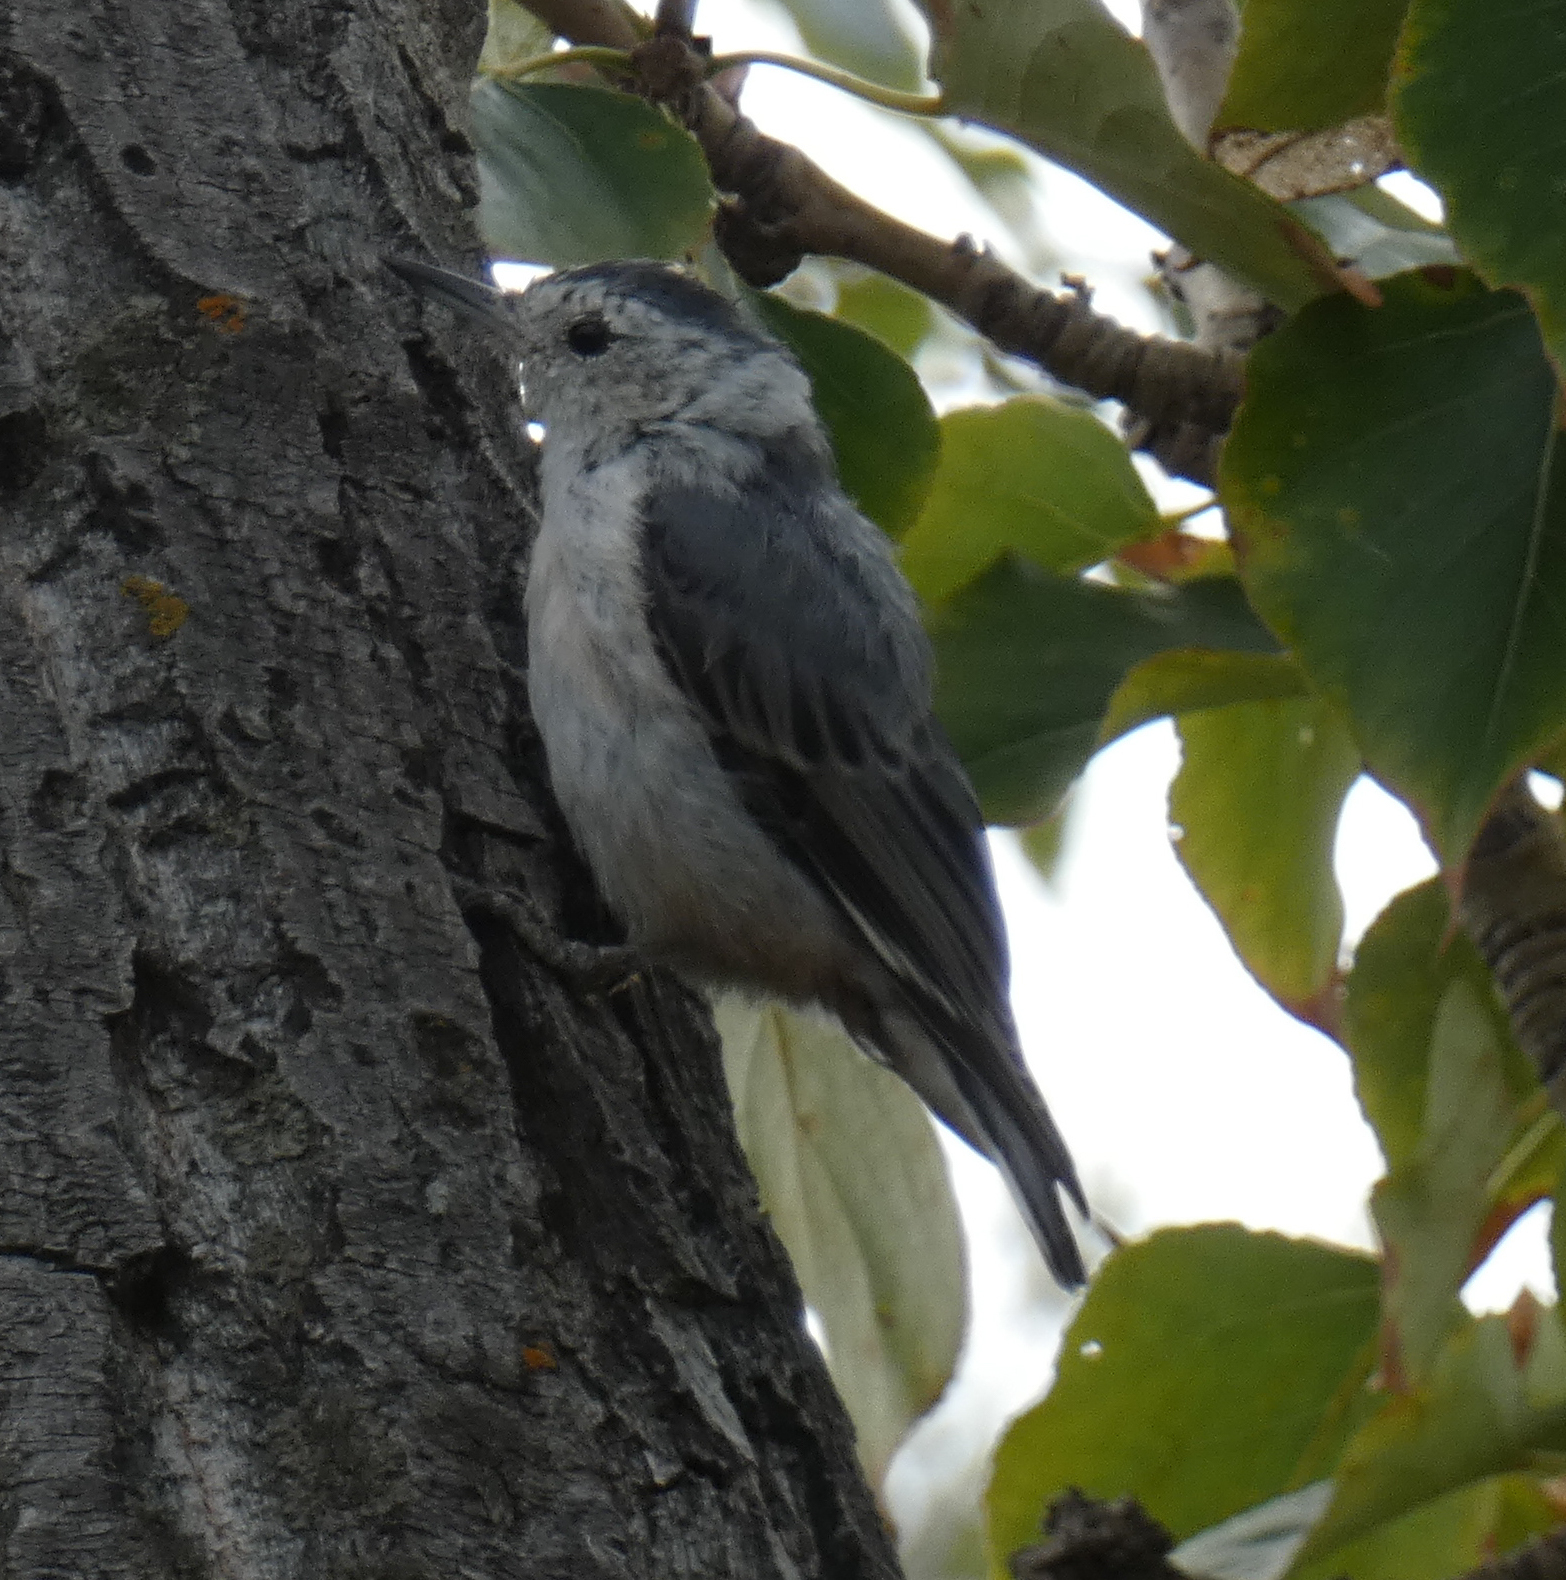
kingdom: Animalia
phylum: Chordata
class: Aves
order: Passeriformes
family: Sittidae
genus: Sitta
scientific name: Sitta carolinensis
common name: White-breasted nuthatch
